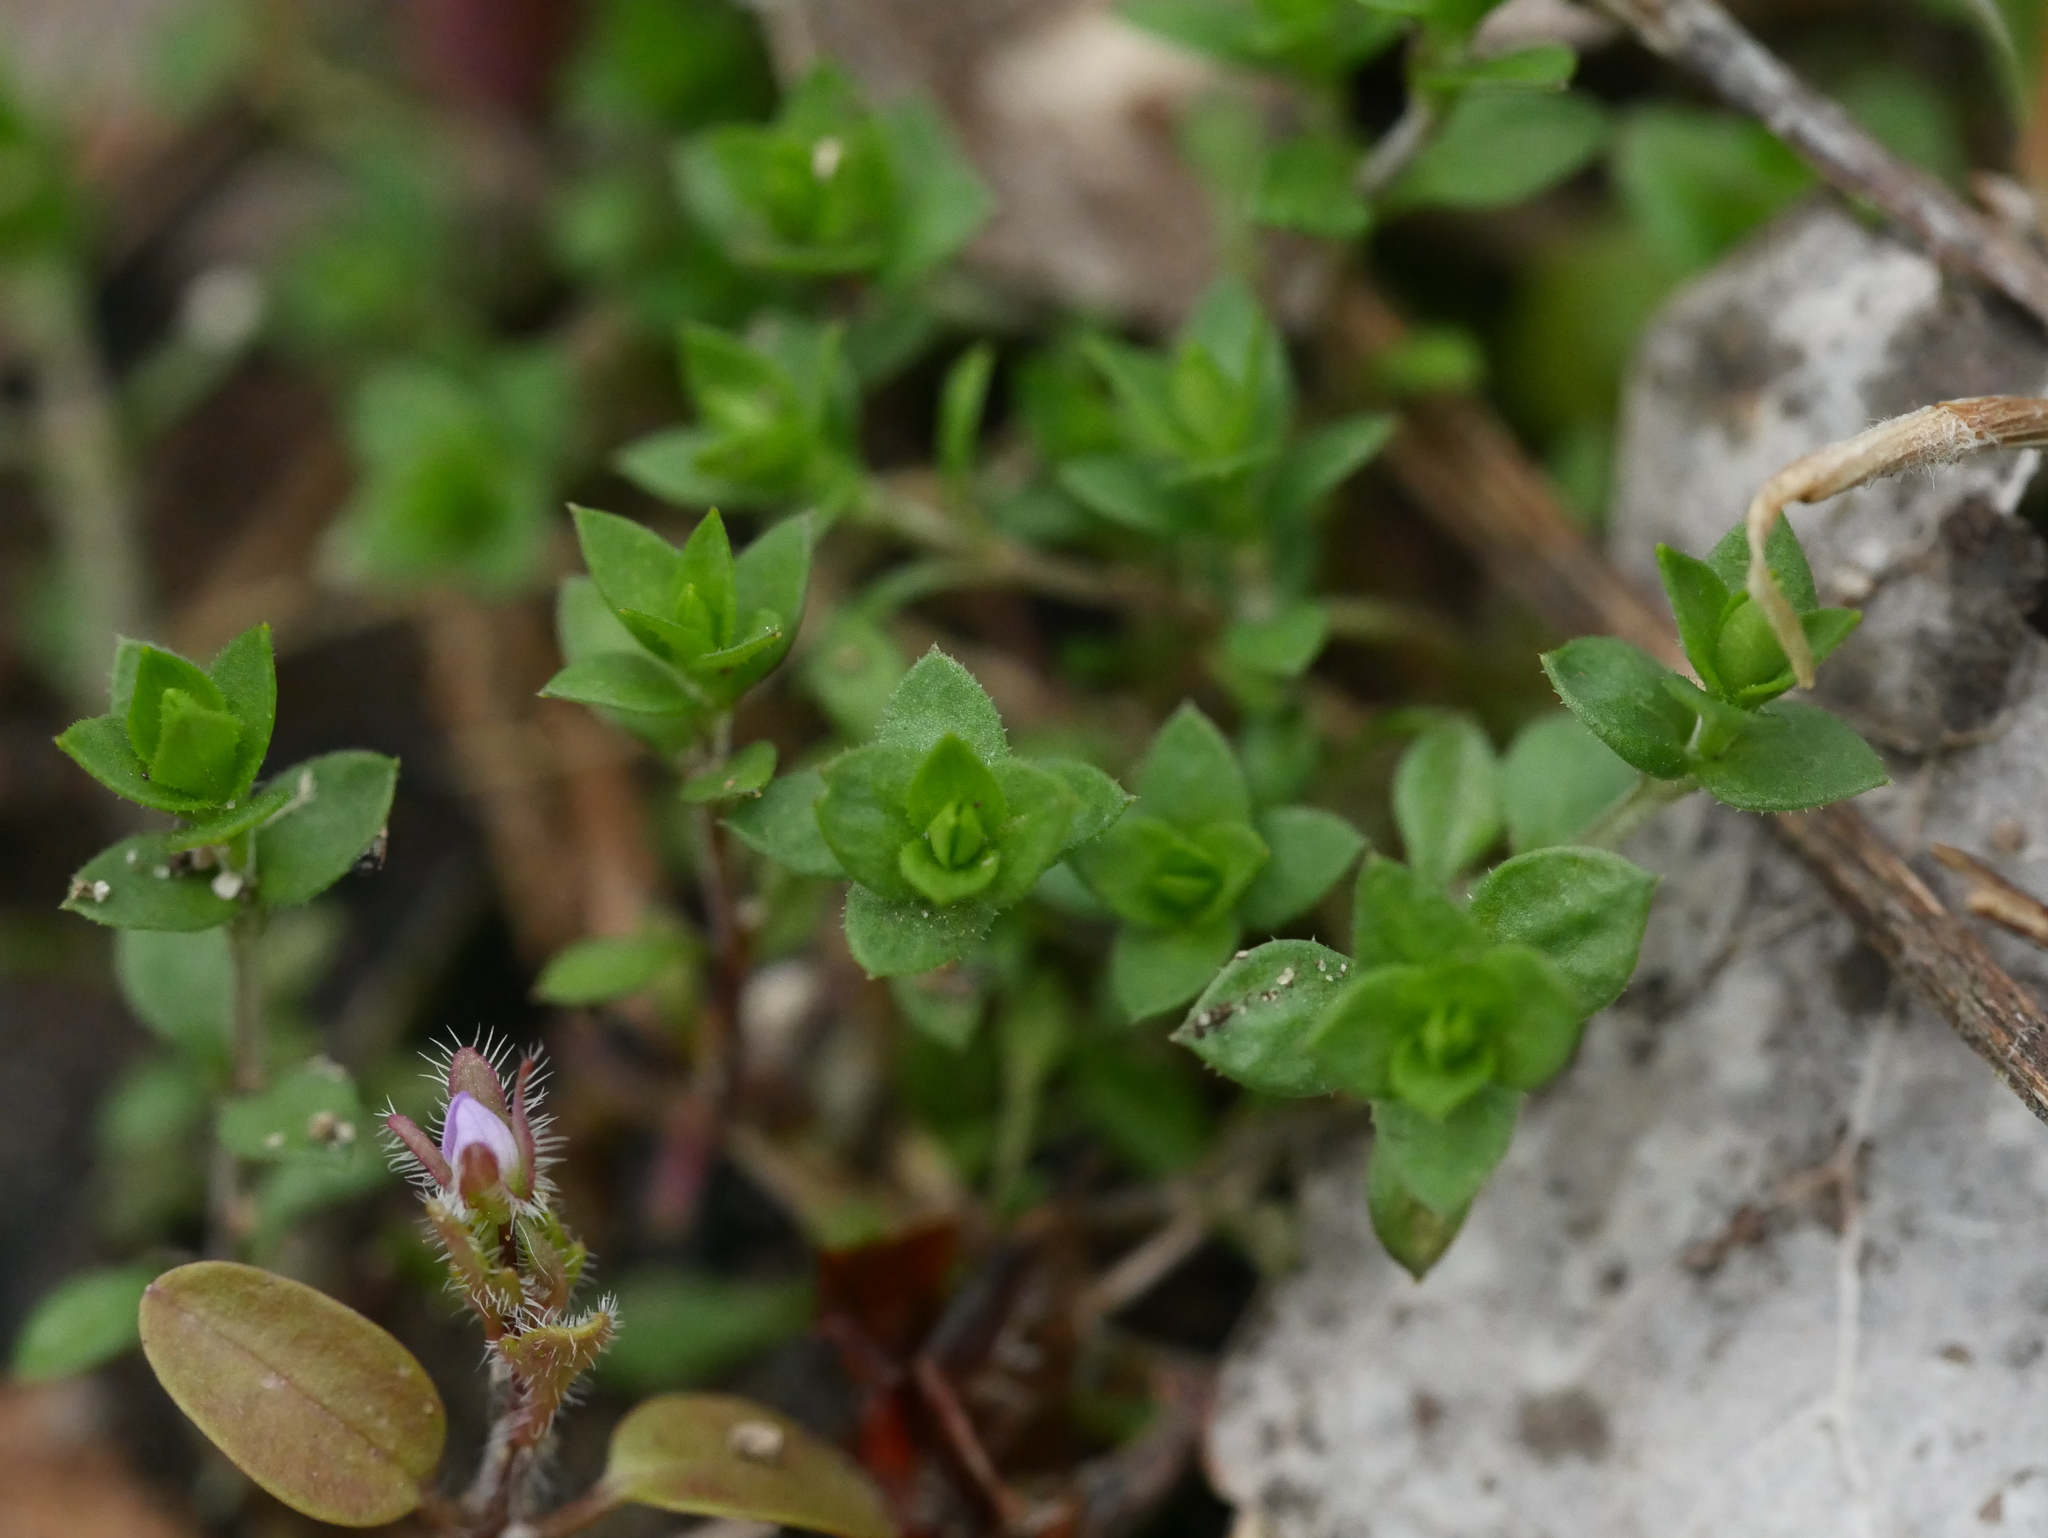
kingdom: Plantae
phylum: Tracheophyta
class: Magnoliopsida
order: Caryophyllales
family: Caryophyllaceae
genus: Arenaria
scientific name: Arenaria serpyllifolia
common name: Thyme-leaved sandwort
